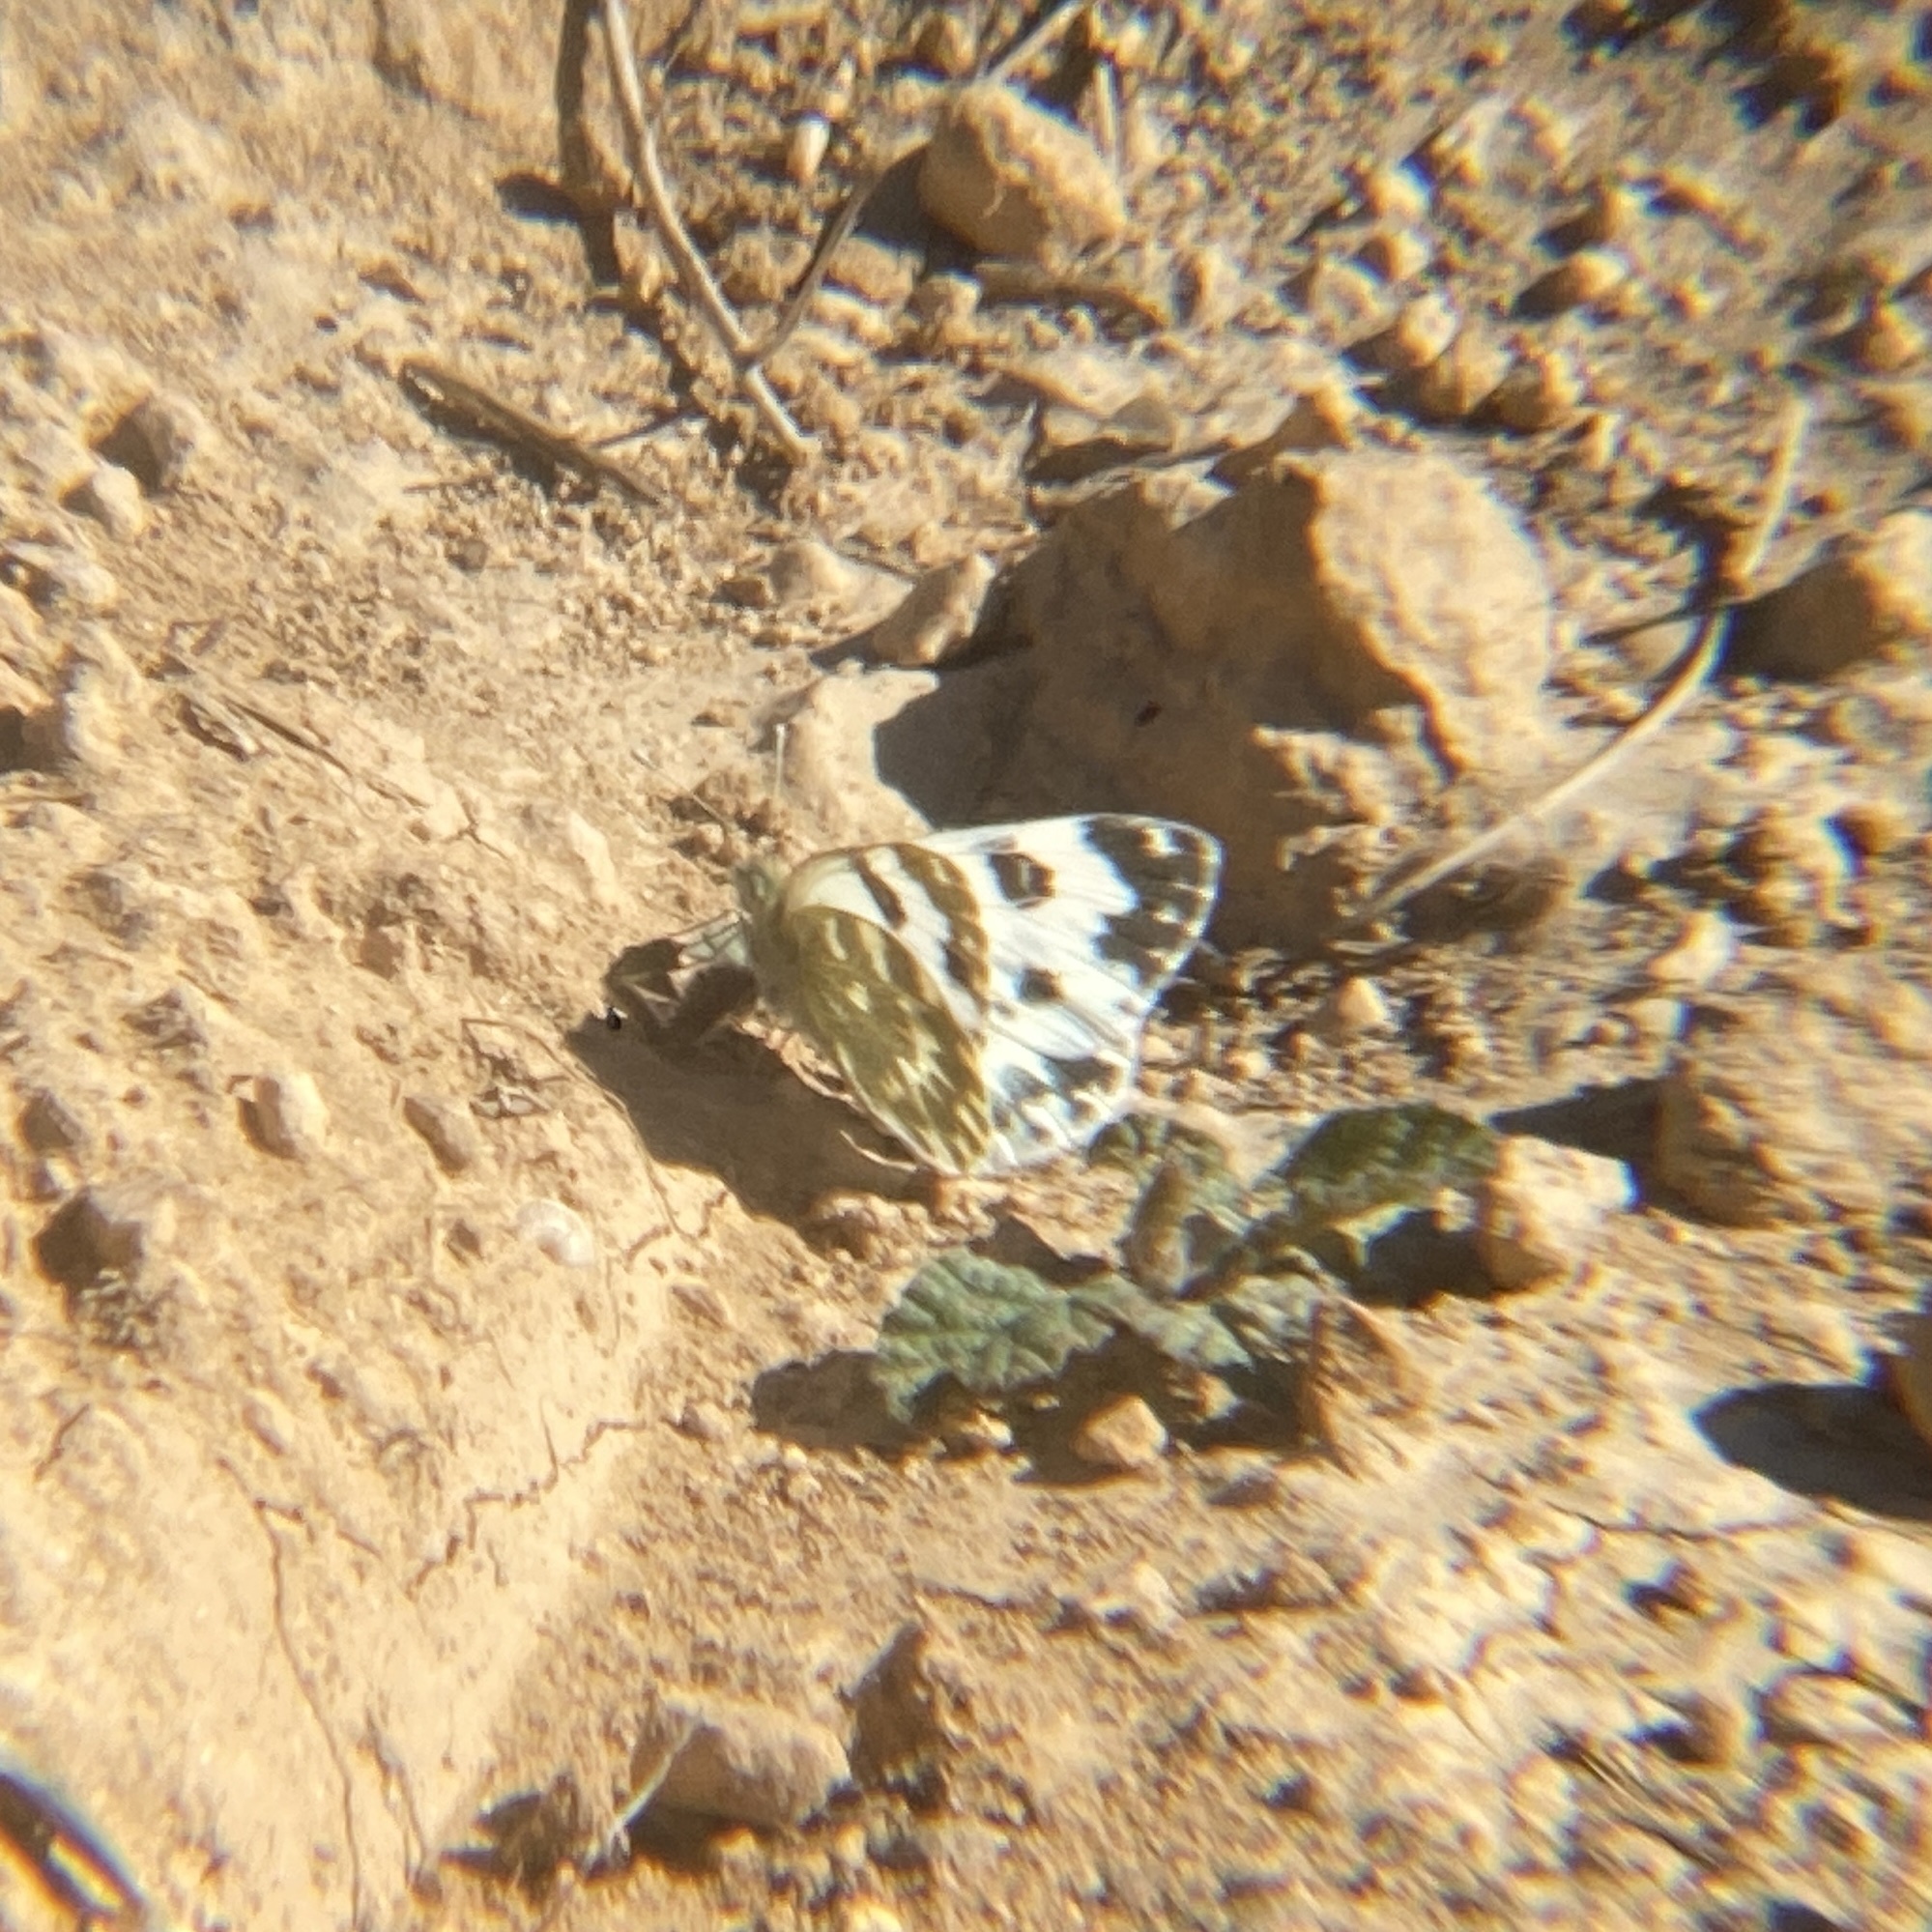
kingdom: Animalia
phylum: Arthropoda
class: Insecta
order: Lepidoptera
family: Pieridae
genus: Pontia
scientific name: Pontia daplidice
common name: Bath white
